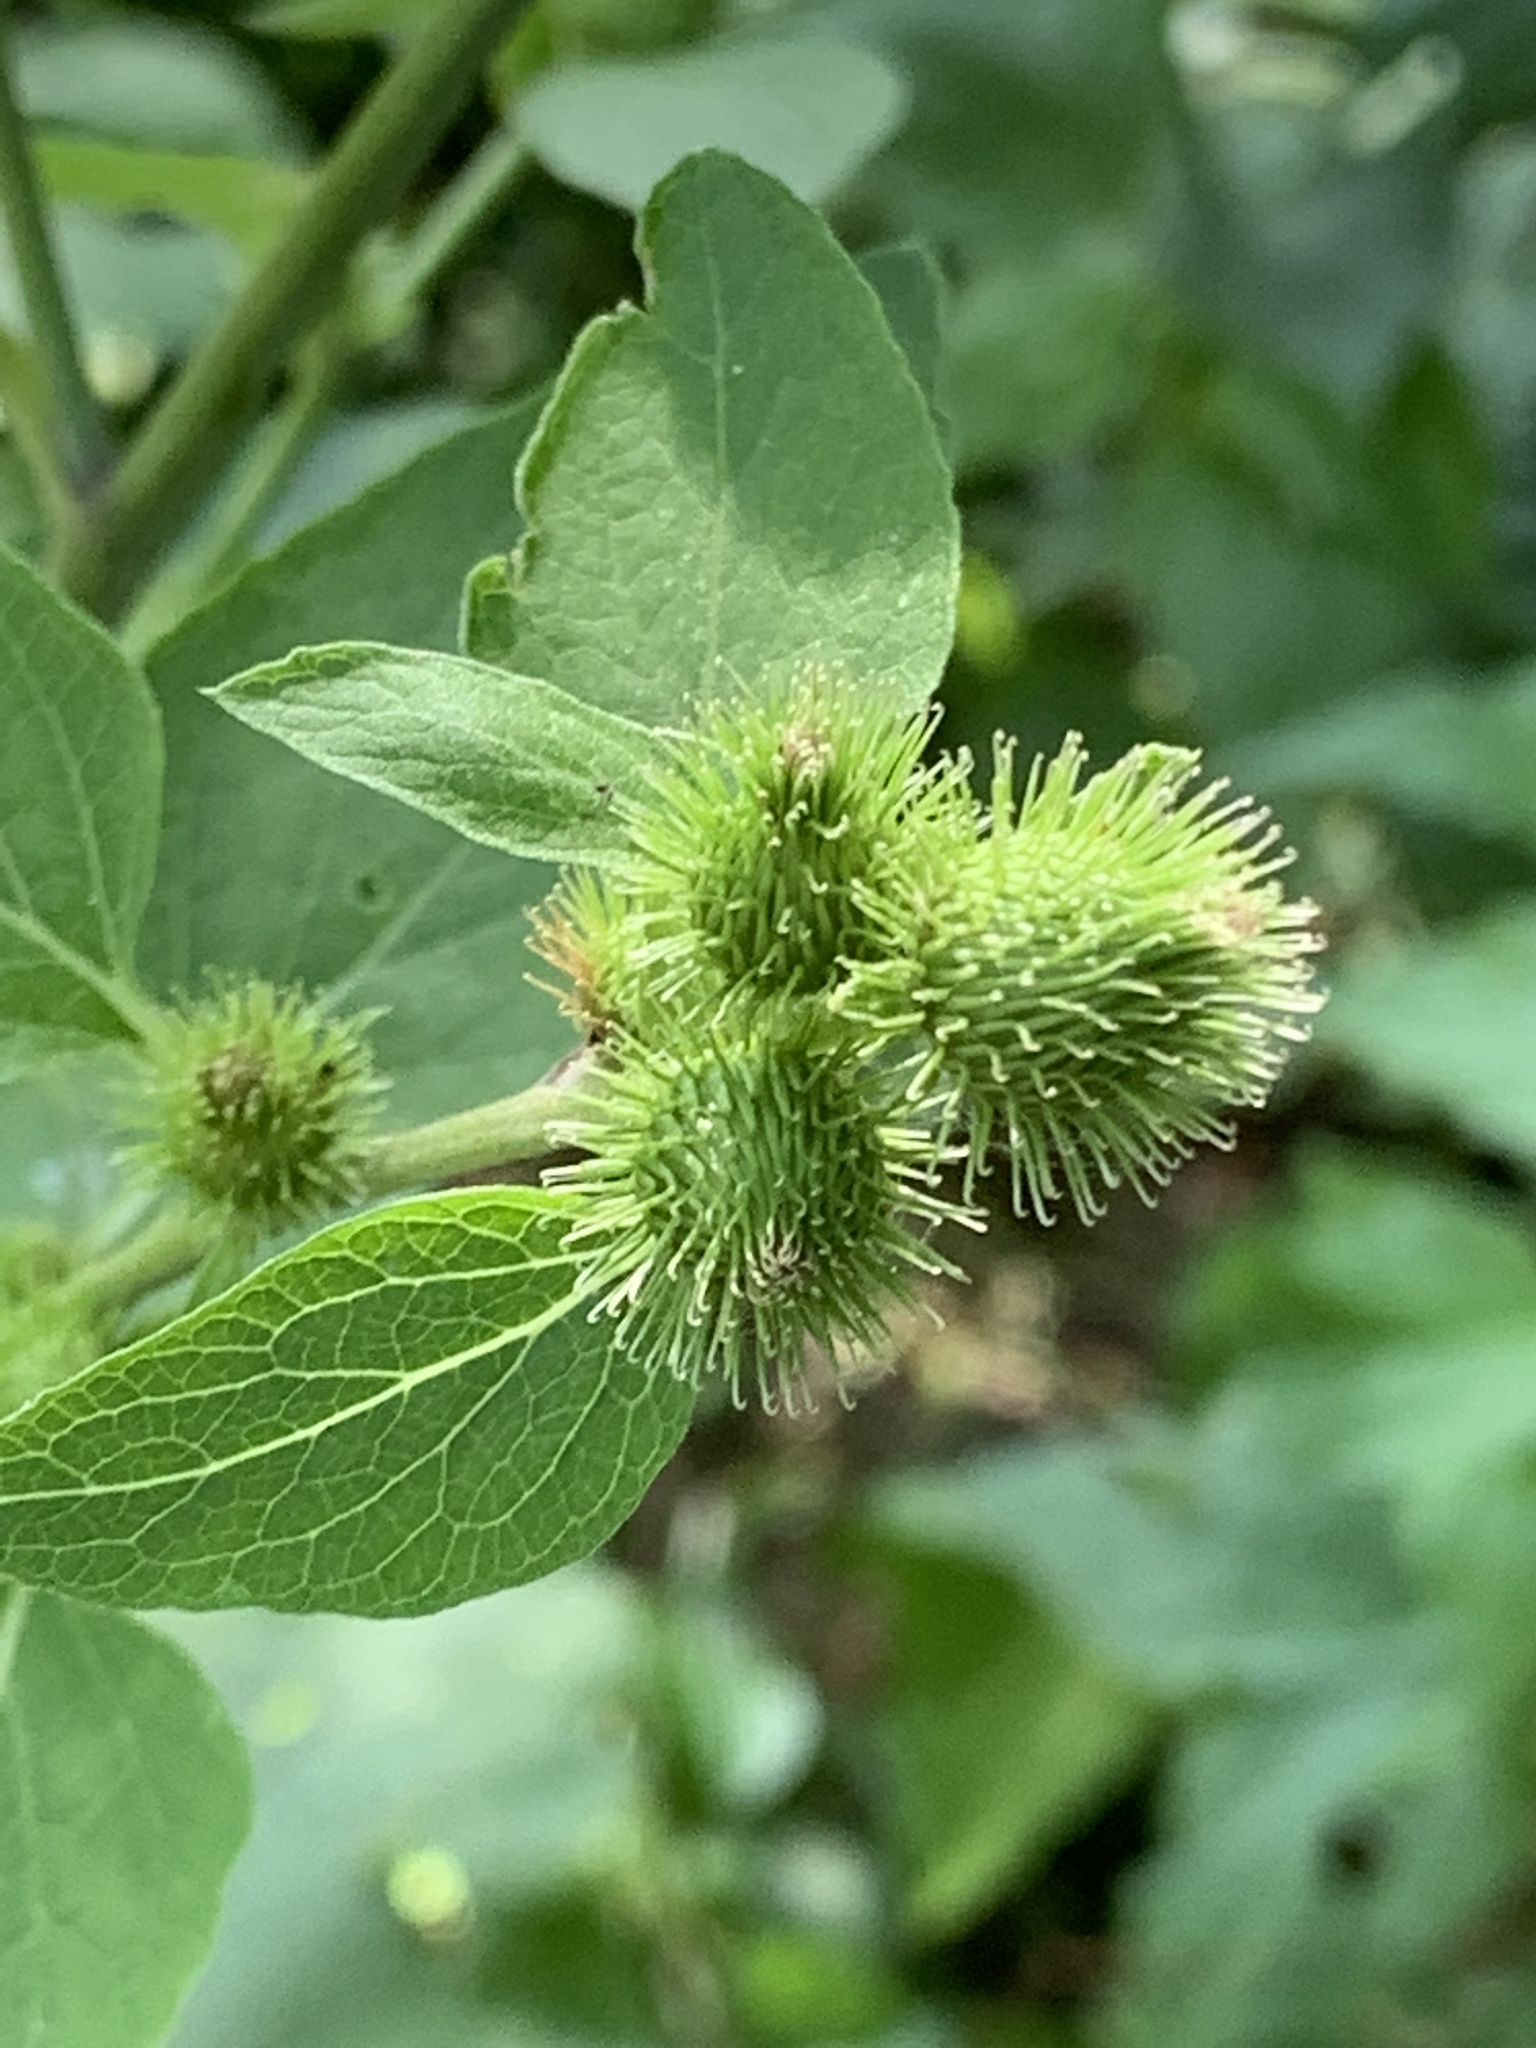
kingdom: Plantae
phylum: Tracheophyta
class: Magnoliopsida
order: Asterales
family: Asteraceae
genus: Arctium
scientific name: Arctium minus
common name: Lesser burdock
